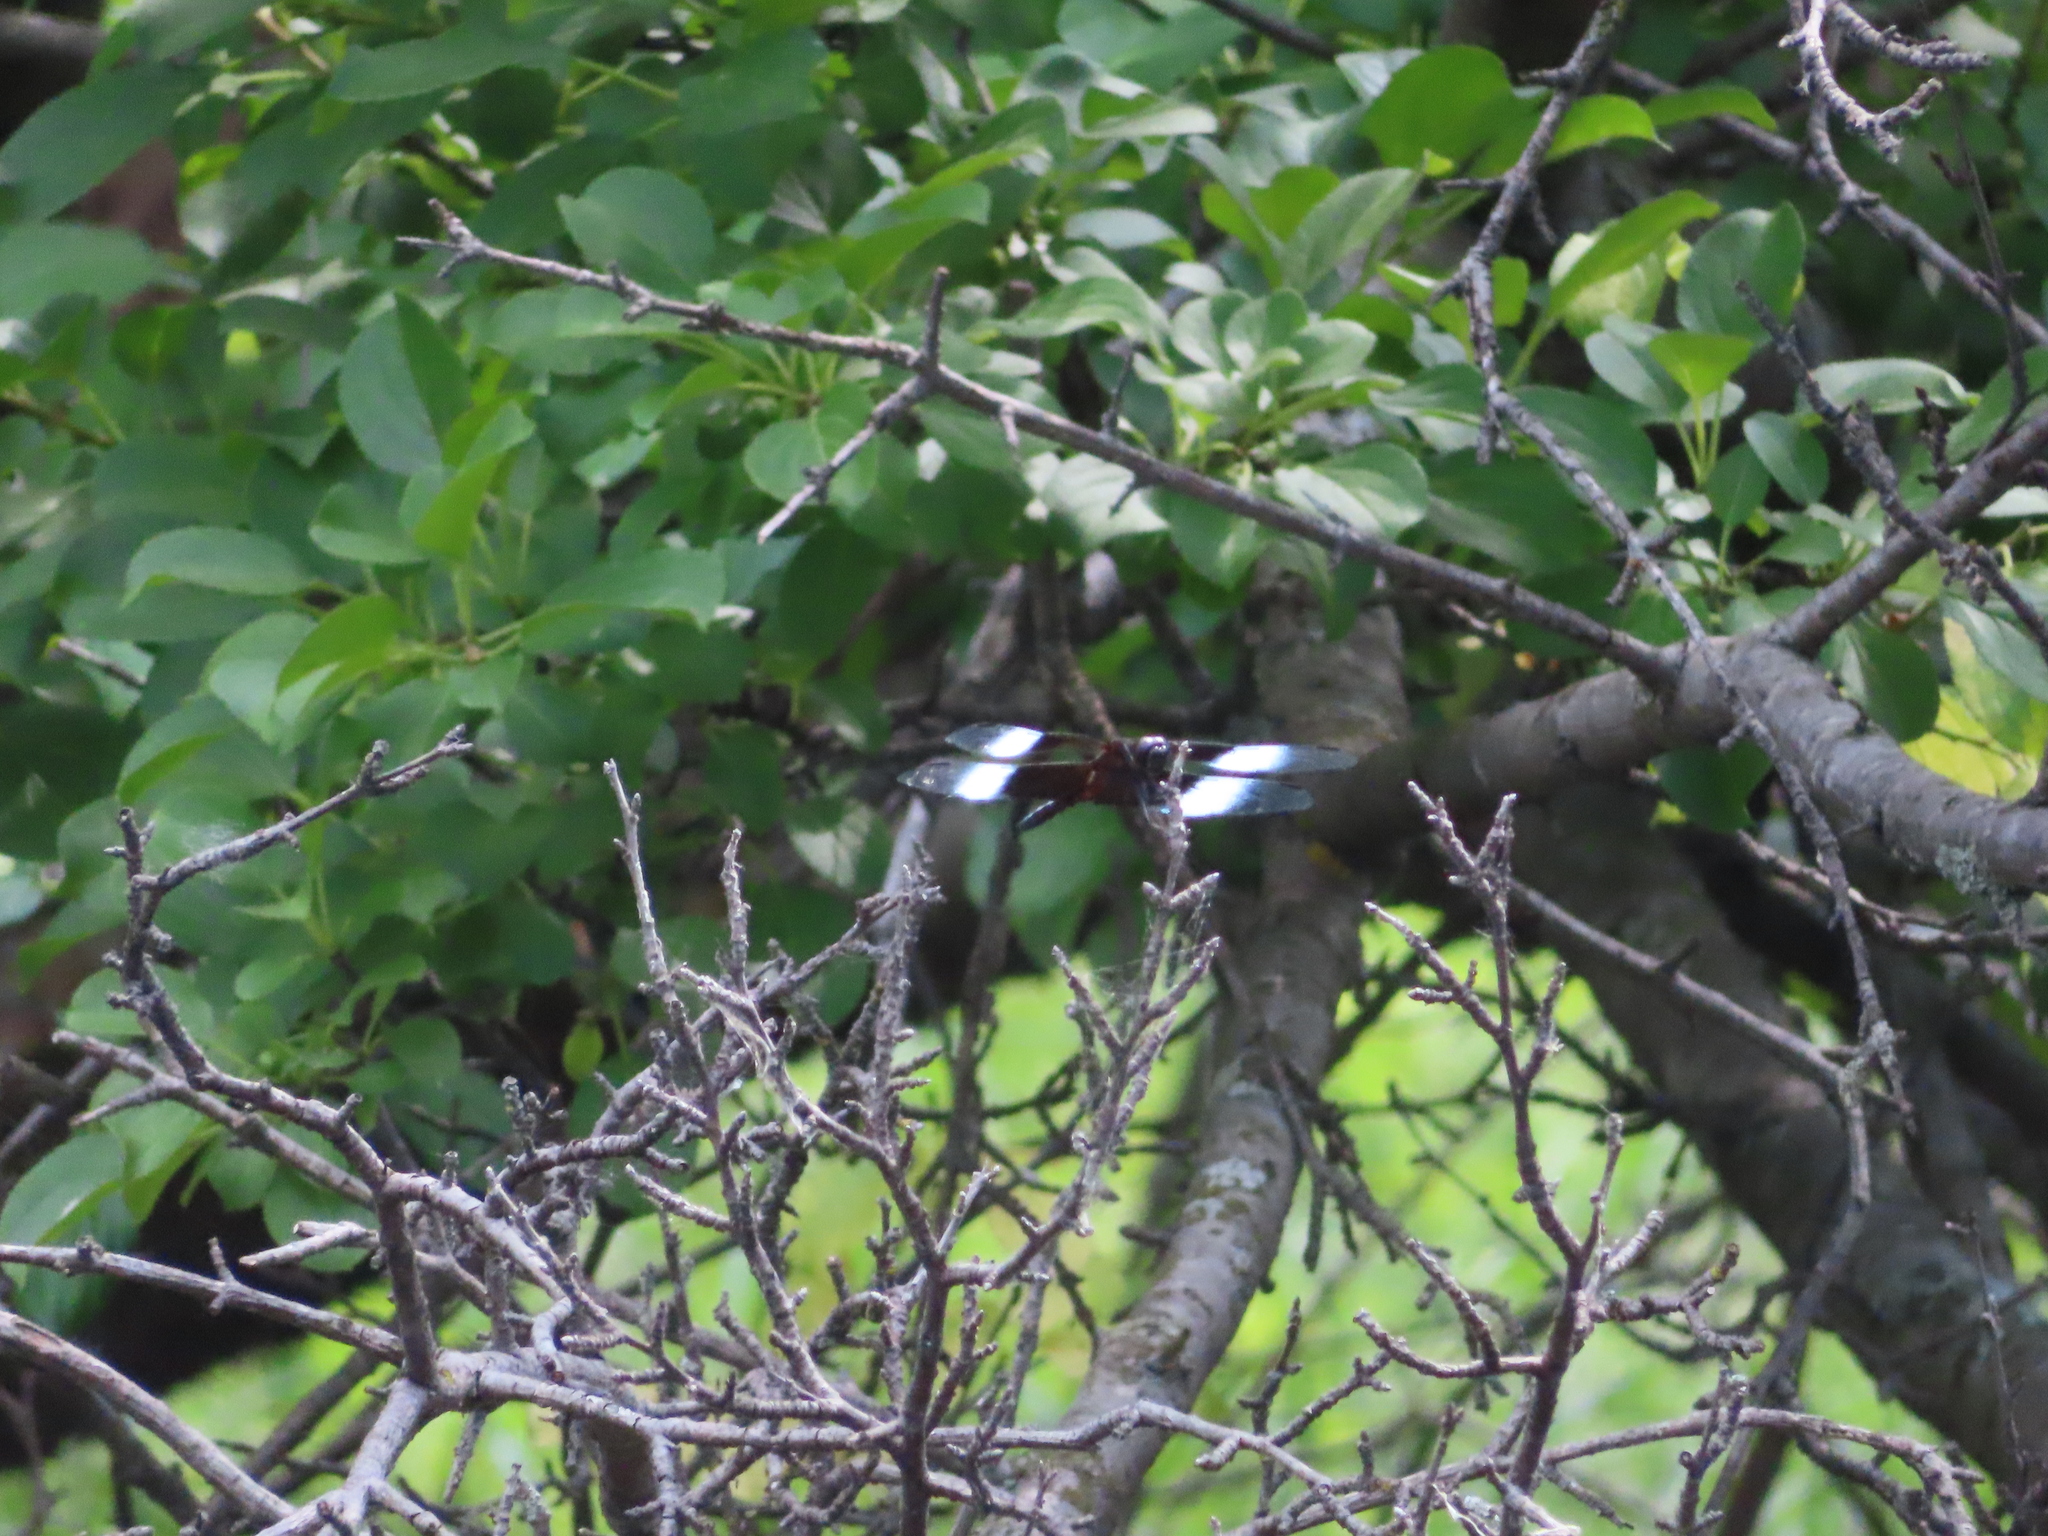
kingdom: Animalia
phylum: Arthropoda
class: Insecta
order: Odonata
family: Libellulidae
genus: Libellula
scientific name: Libellula luctuosa
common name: Widow skimmer
